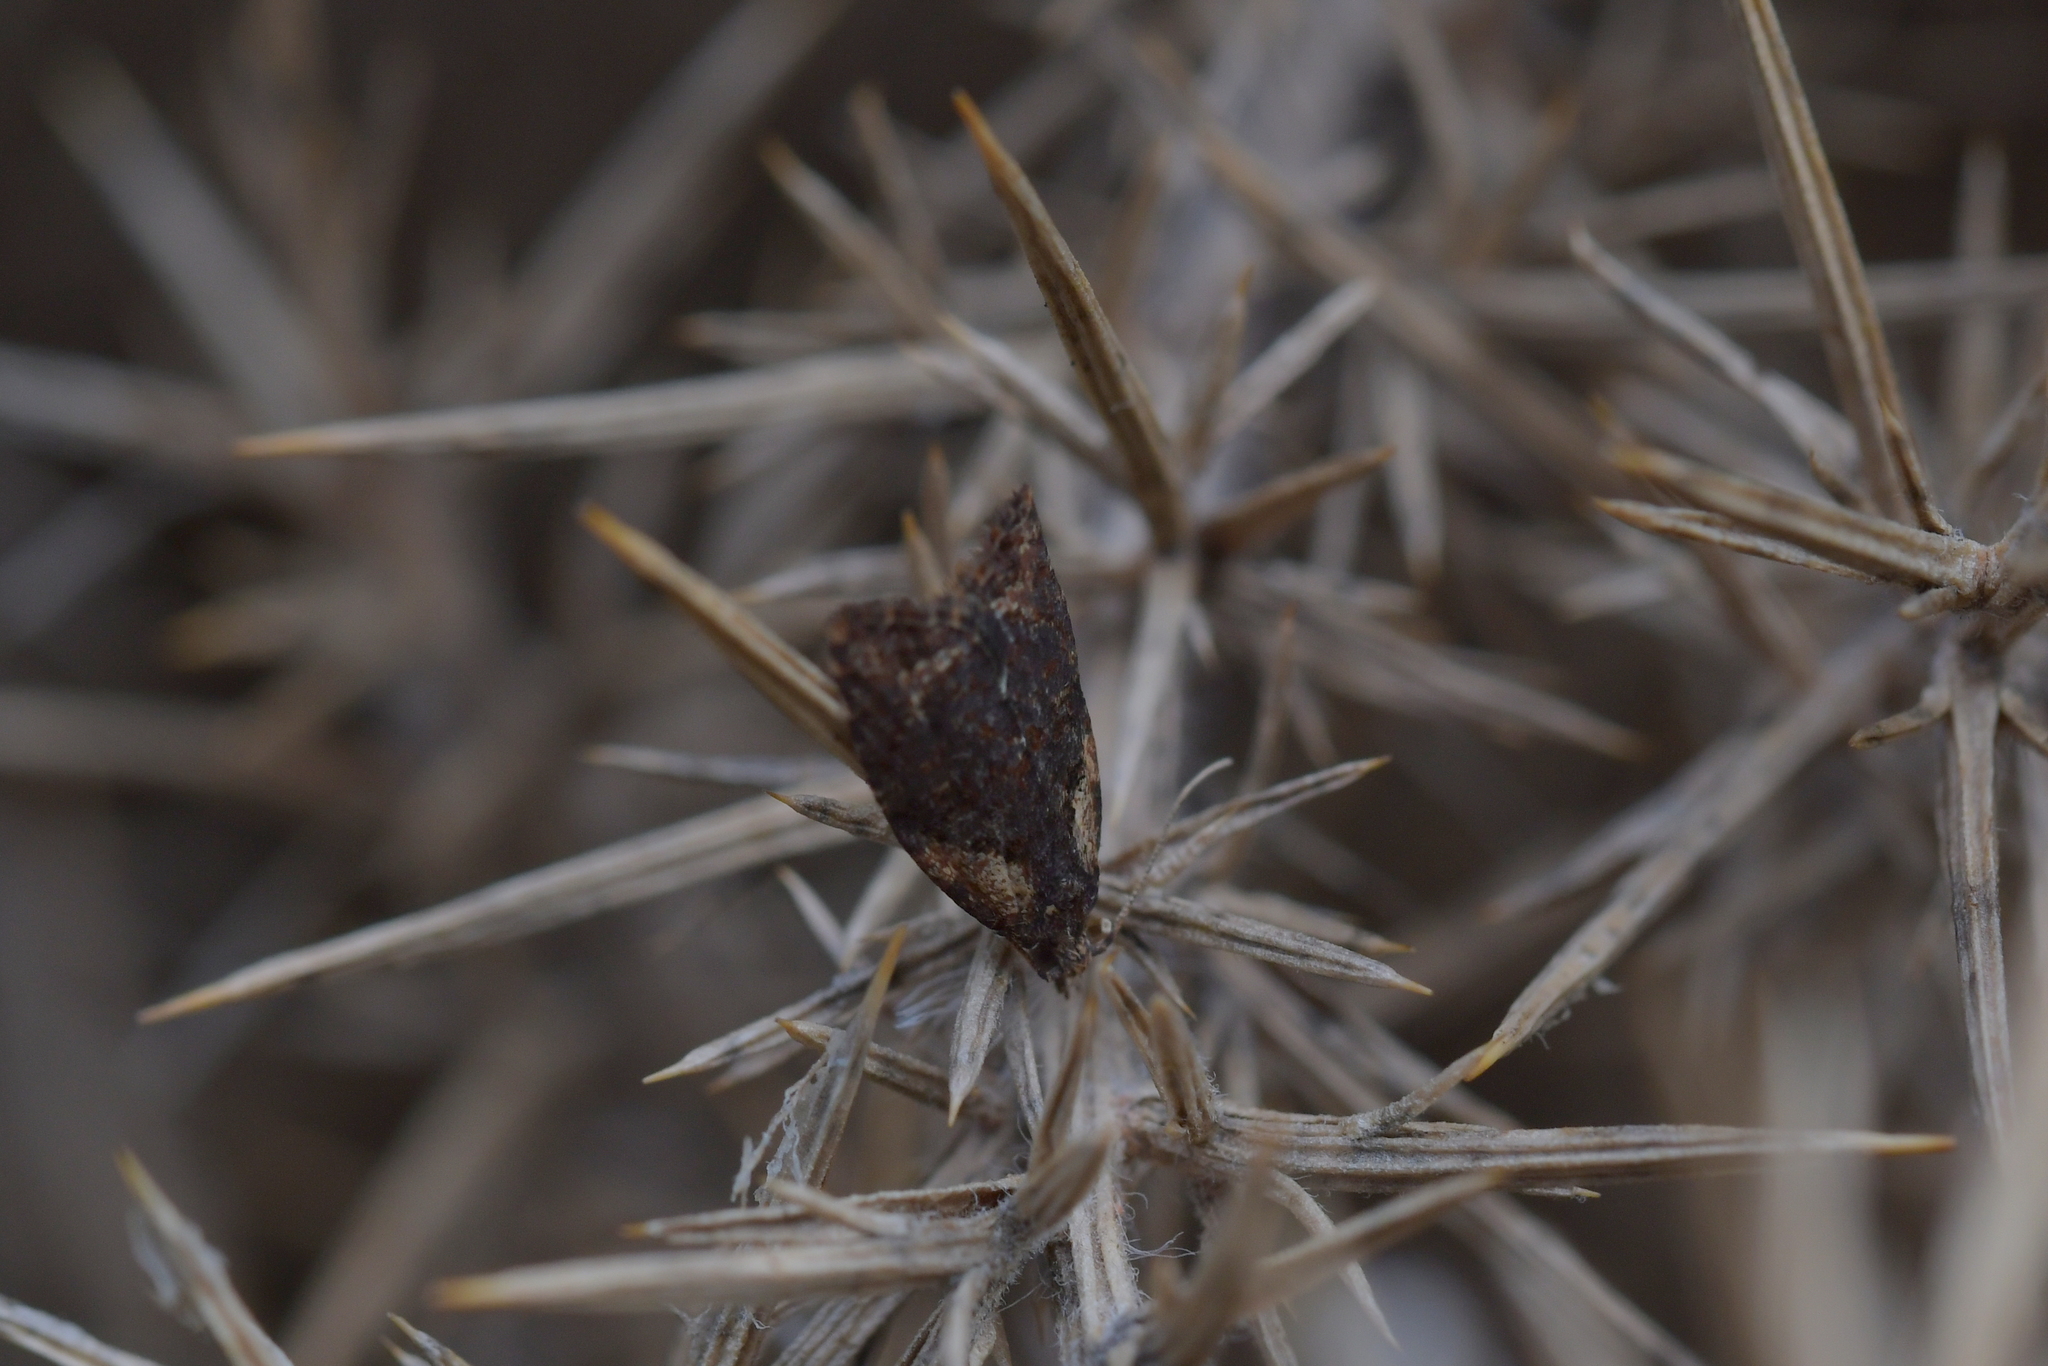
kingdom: Animalia
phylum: Arthropoda
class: Insecta
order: Lepidoptera
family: Tortricidae
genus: Capua
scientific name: Capua intractana
